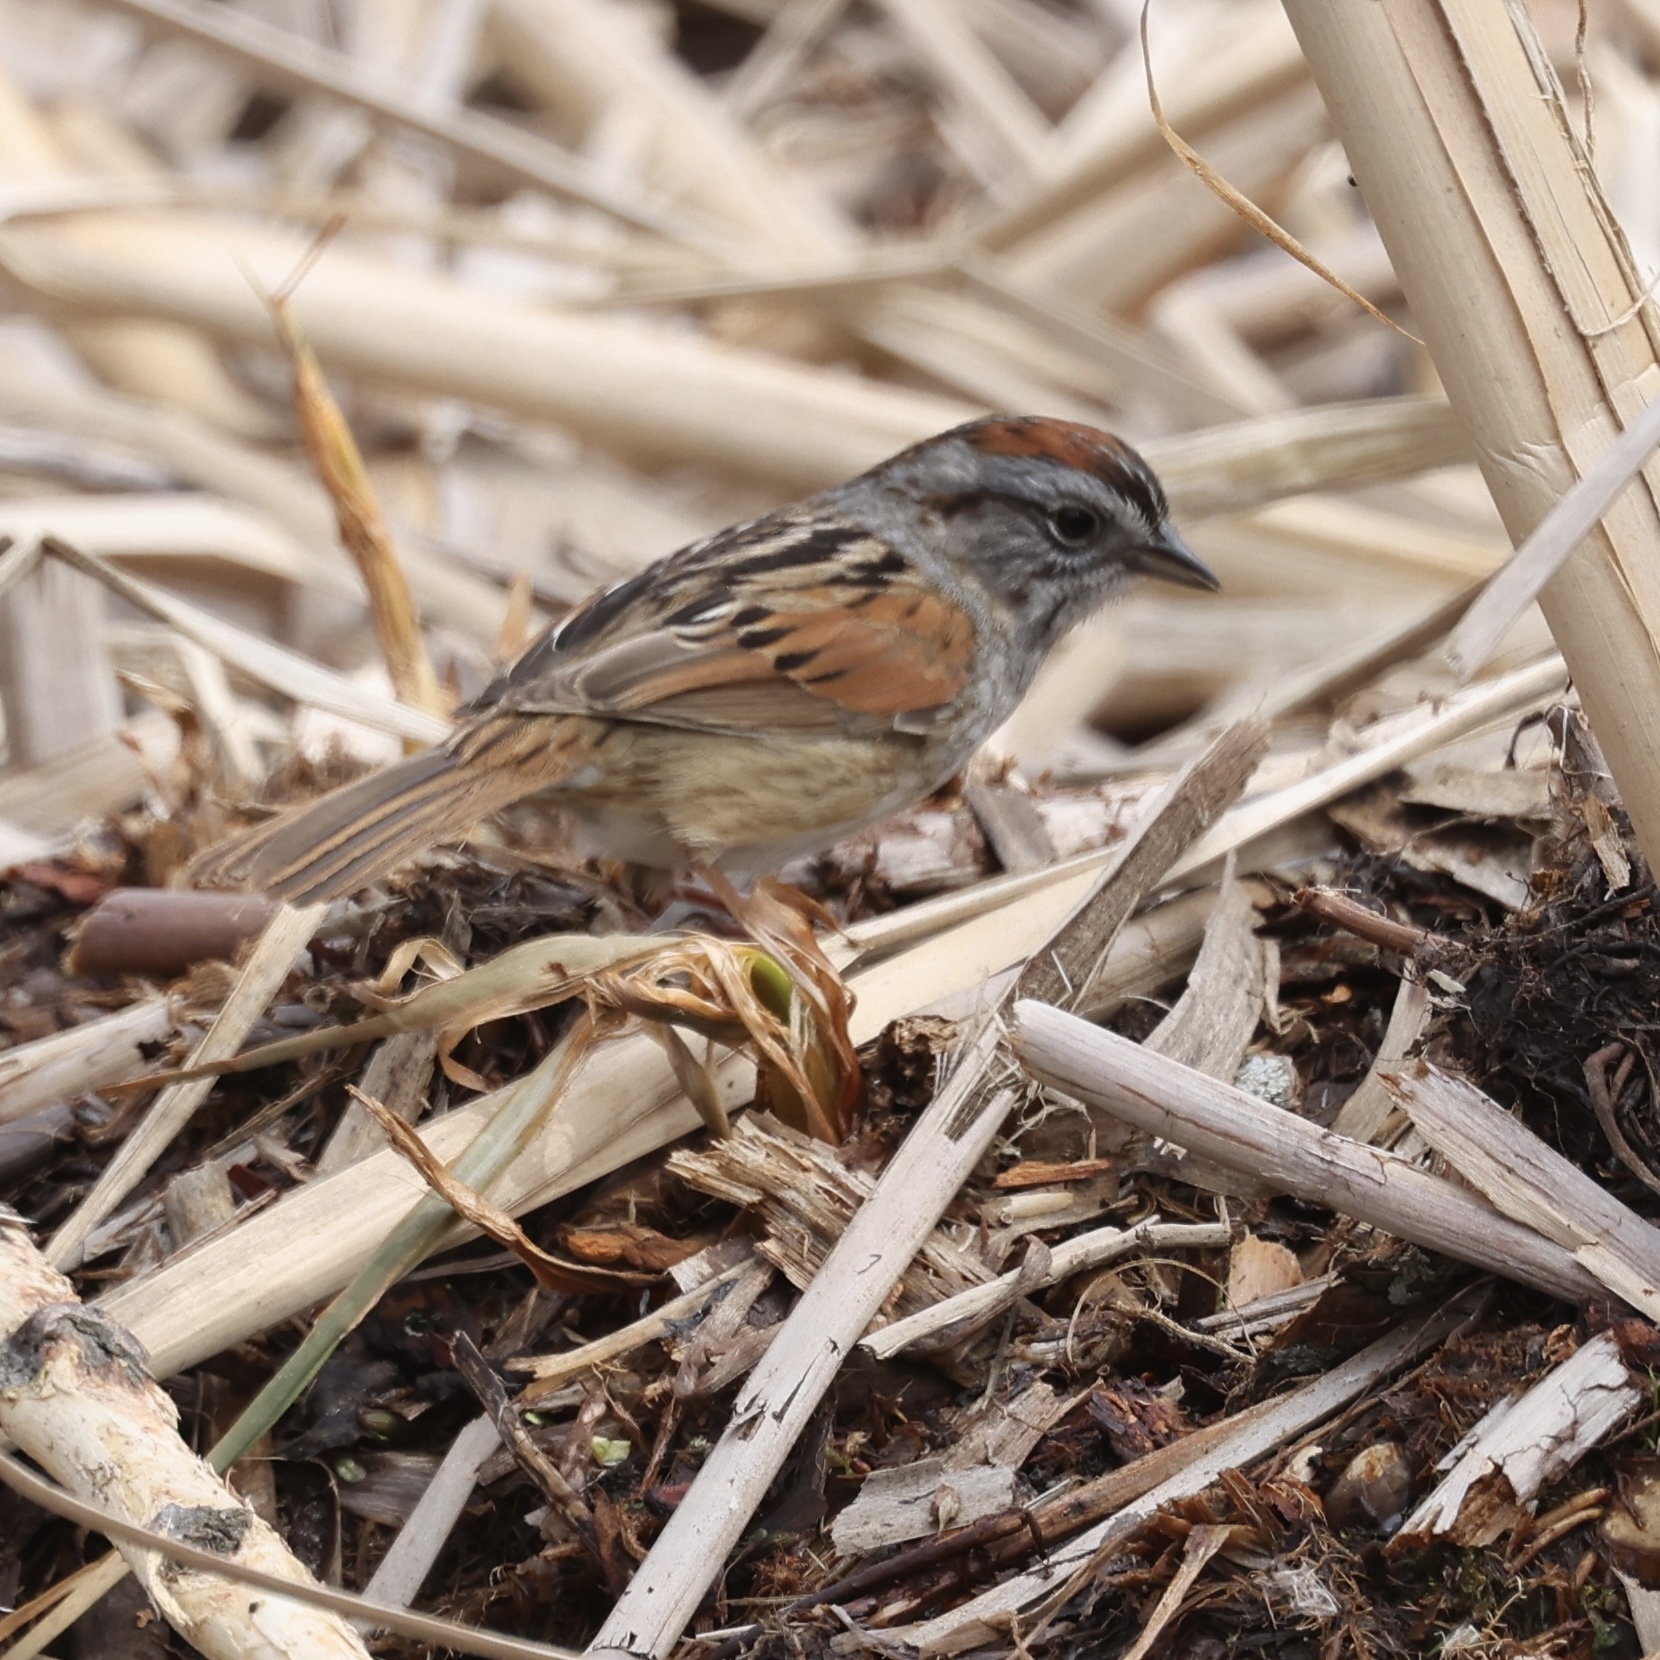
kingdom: Animalia
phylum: Chordata
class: Aves
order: Passeriformes
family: Passerellidae
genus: Melospiza
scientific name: Melospiza georgiana
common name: Swamp sparrow
